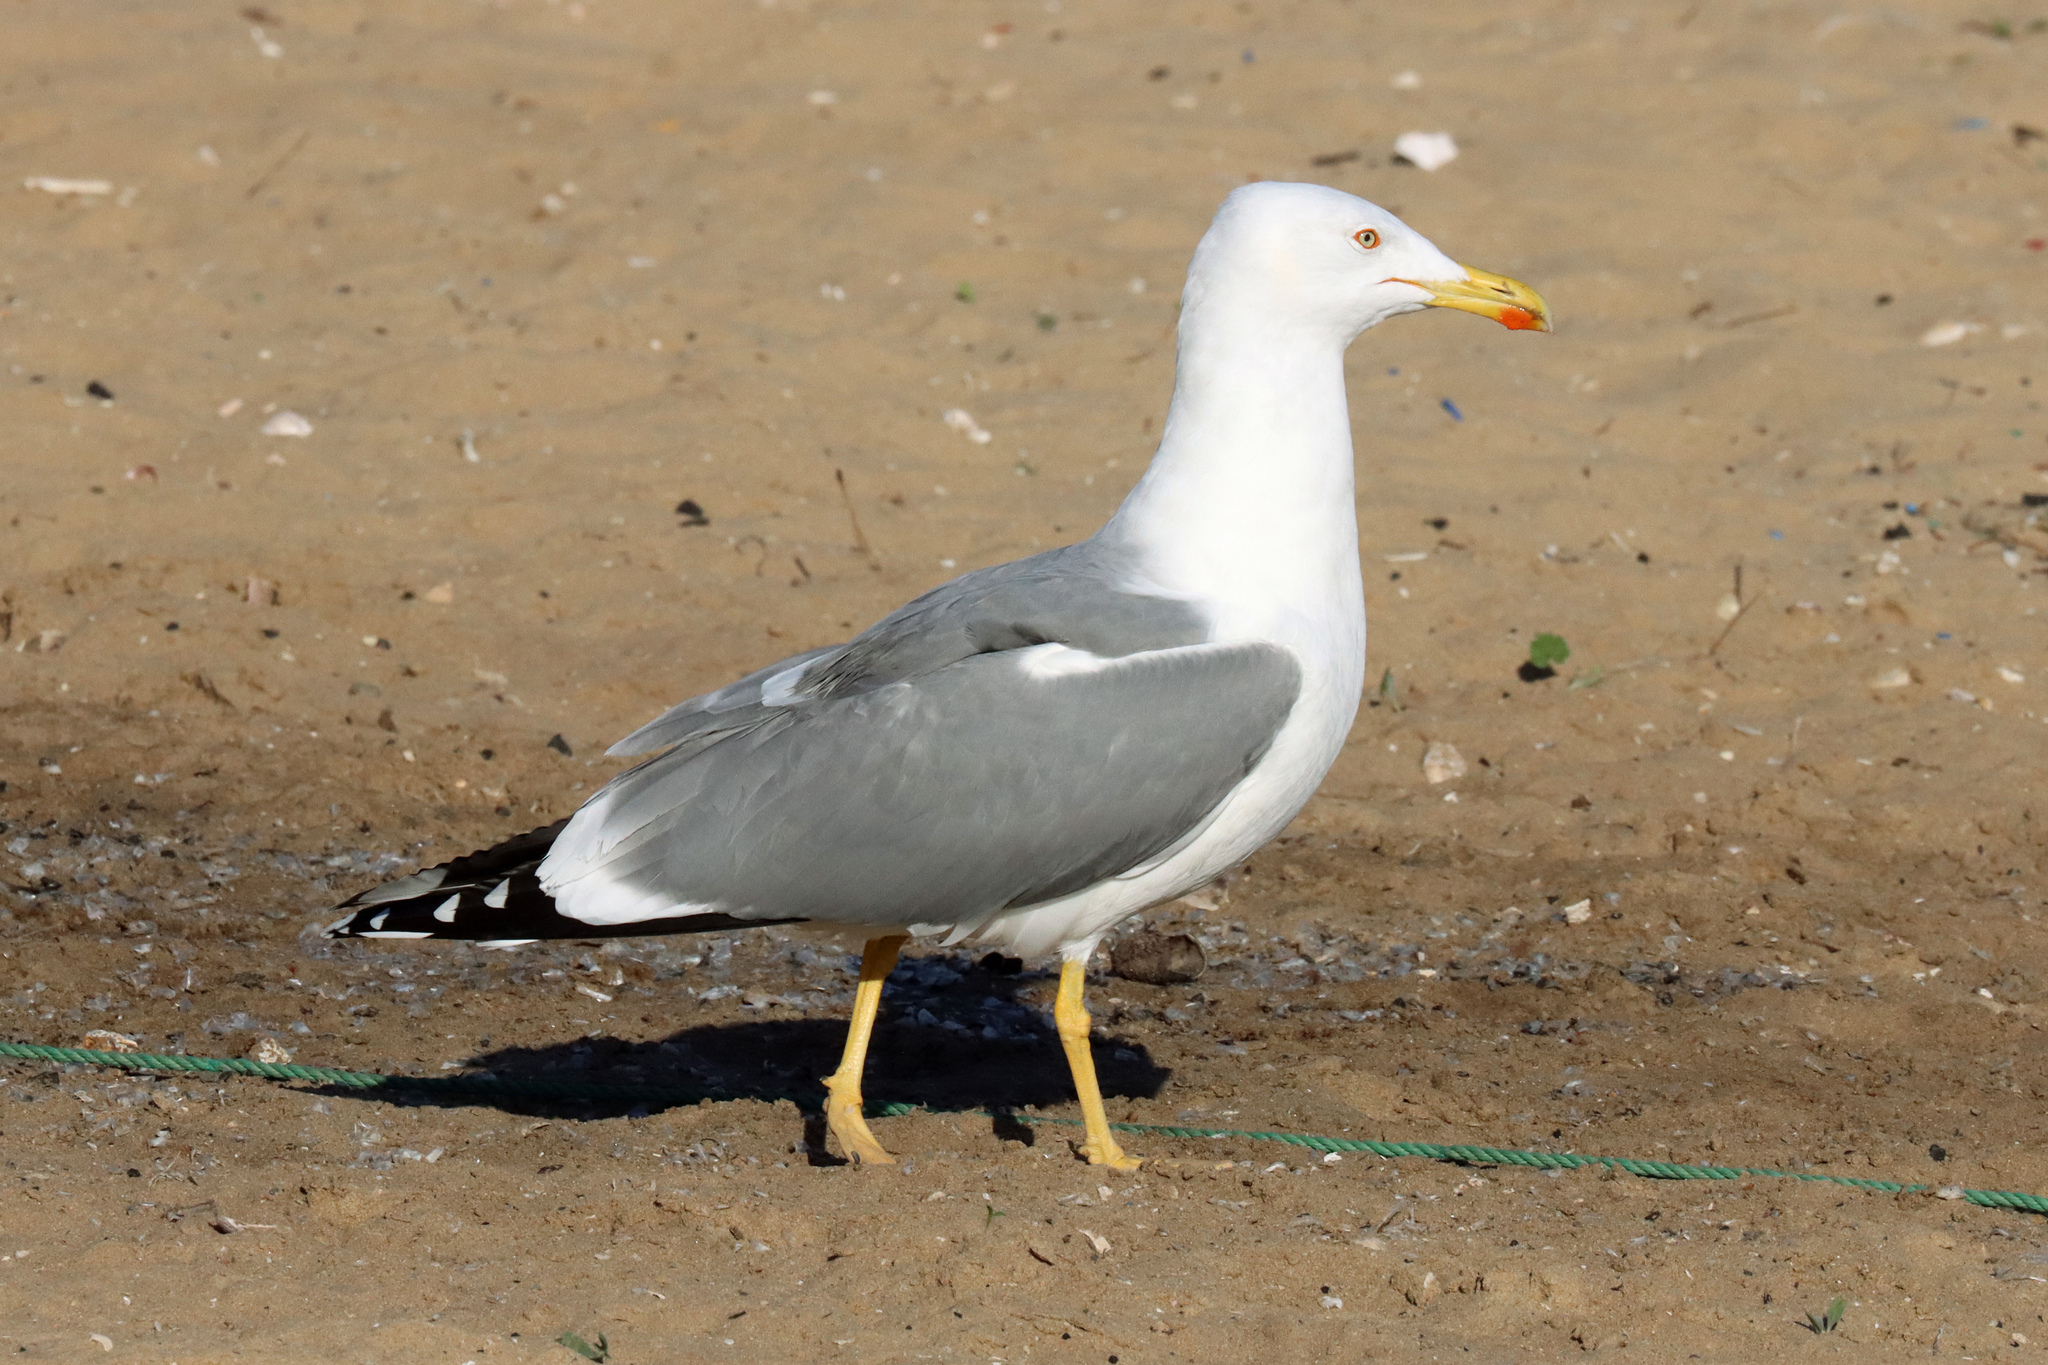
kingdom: Animalia
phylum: Chordata
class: Aves
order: Charadriiformes
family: Laridae
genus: Larus
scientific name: Larus michahellis
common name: Yellow-legged gull
